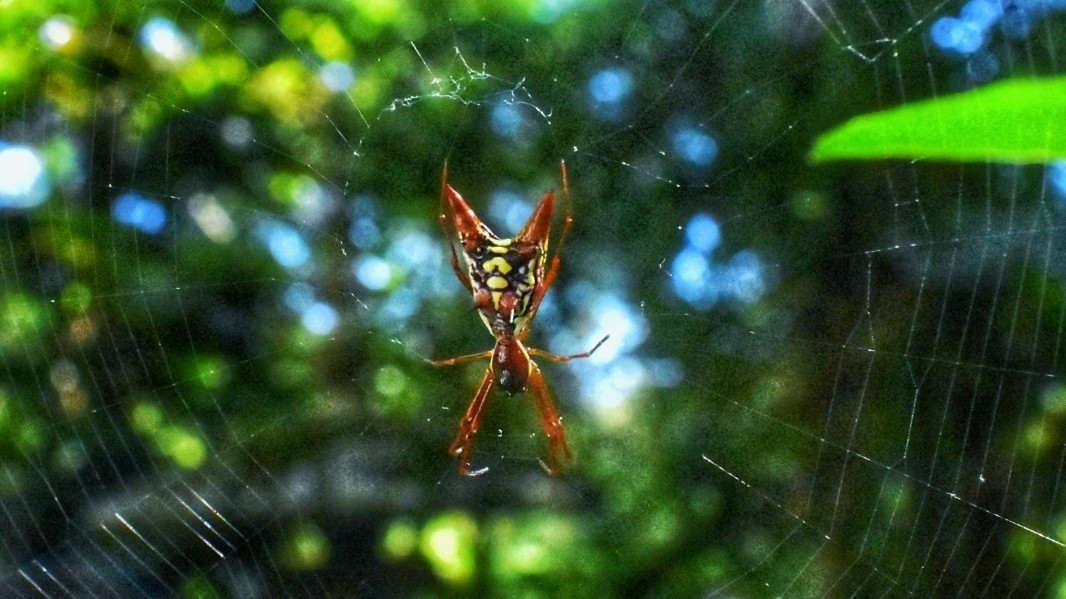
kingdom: Animalia
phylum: Arthropoda
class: Arachnida
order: Araneae
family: Araneidae
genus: Micrathena
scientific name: Micrathena sexspinosa
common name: Orb weavers
